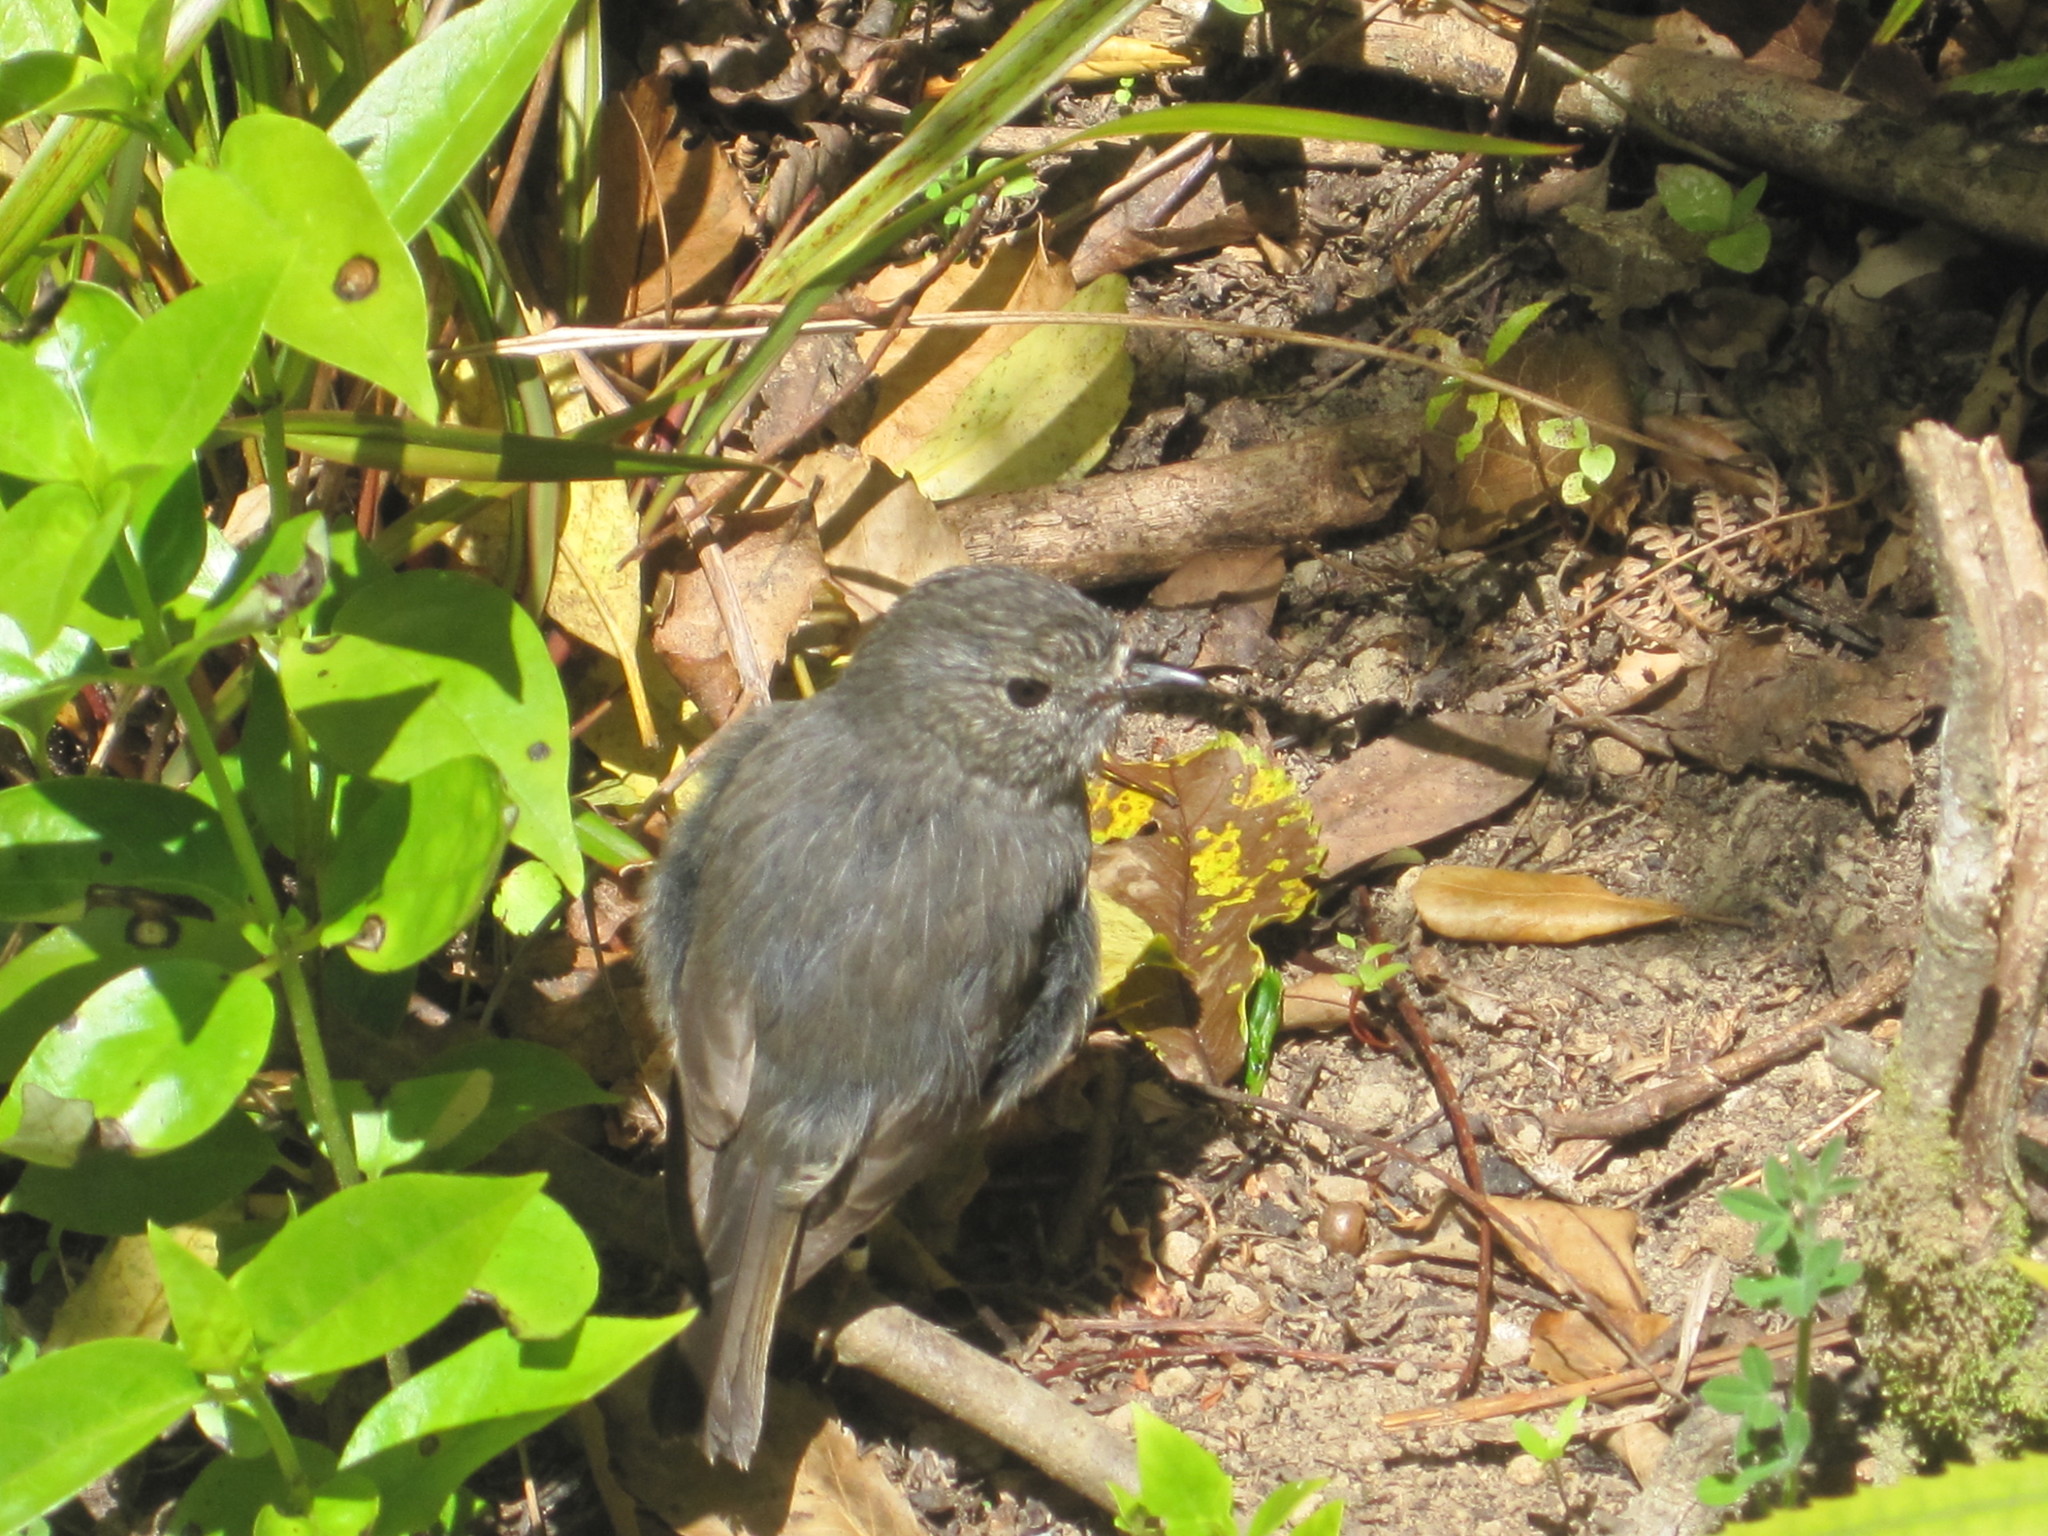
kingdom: Animalia
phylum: Chordata
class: Aves
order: Passeriformes
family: Petroicidae
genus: Petroica
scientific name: Petroica australis
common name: New zealand robin
